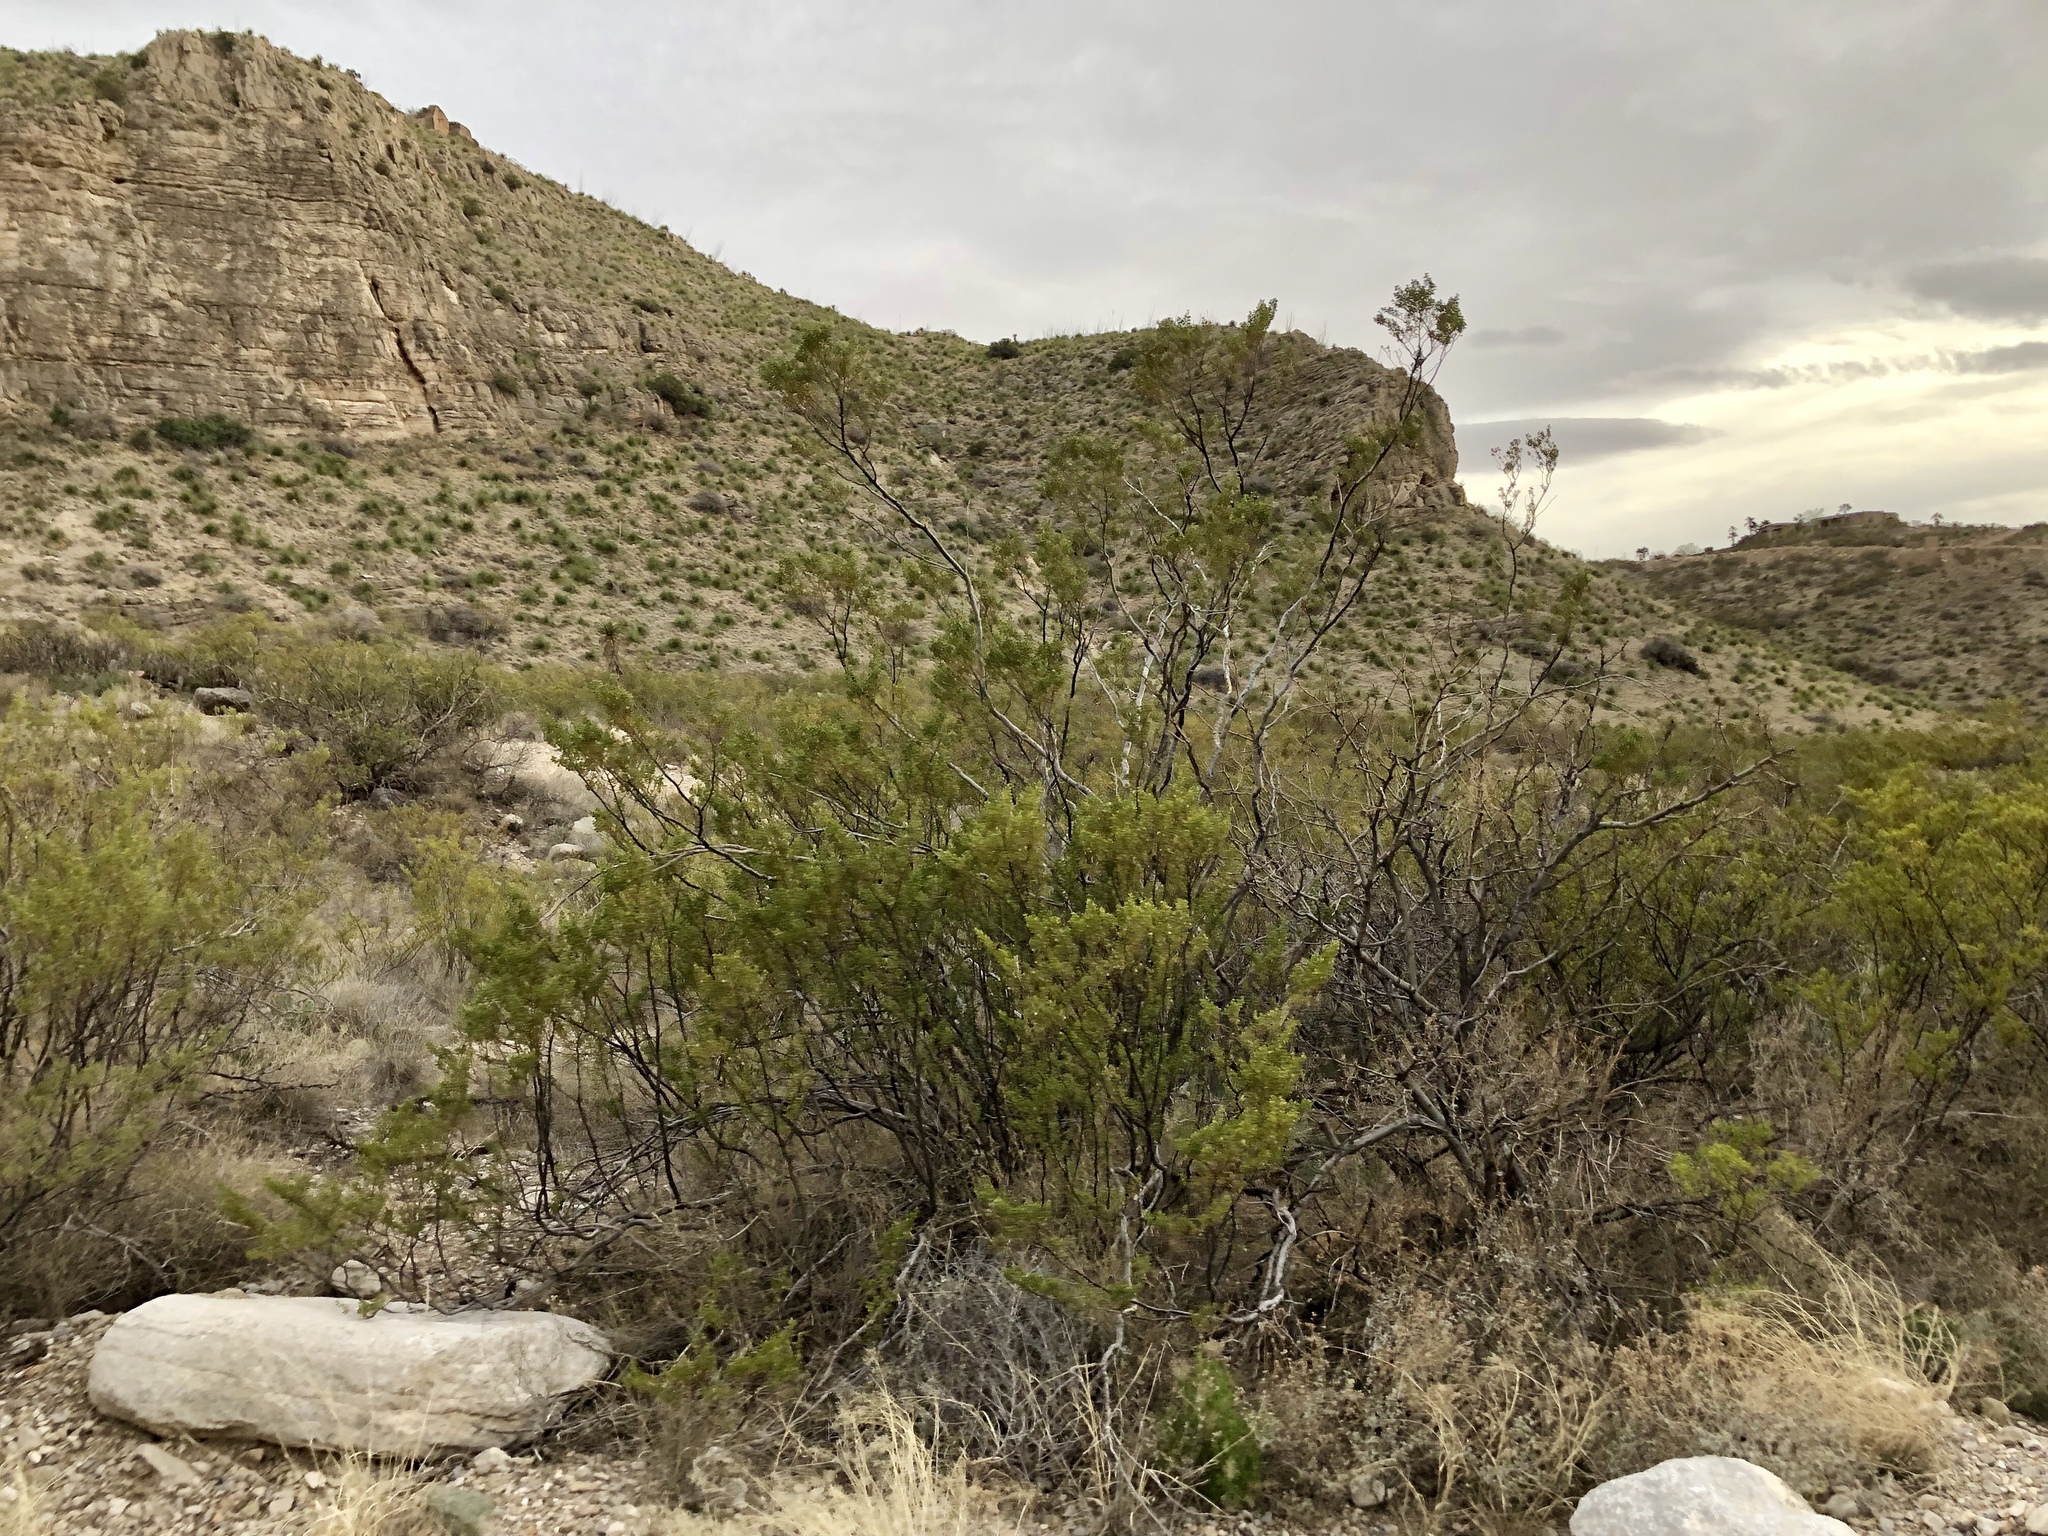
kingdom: Plantae
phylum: Tracheophyta
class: Magnoliopsida
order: Zygophyllales
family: Zygophyllaceae
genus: Larrea
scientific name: Larrea tridentata
